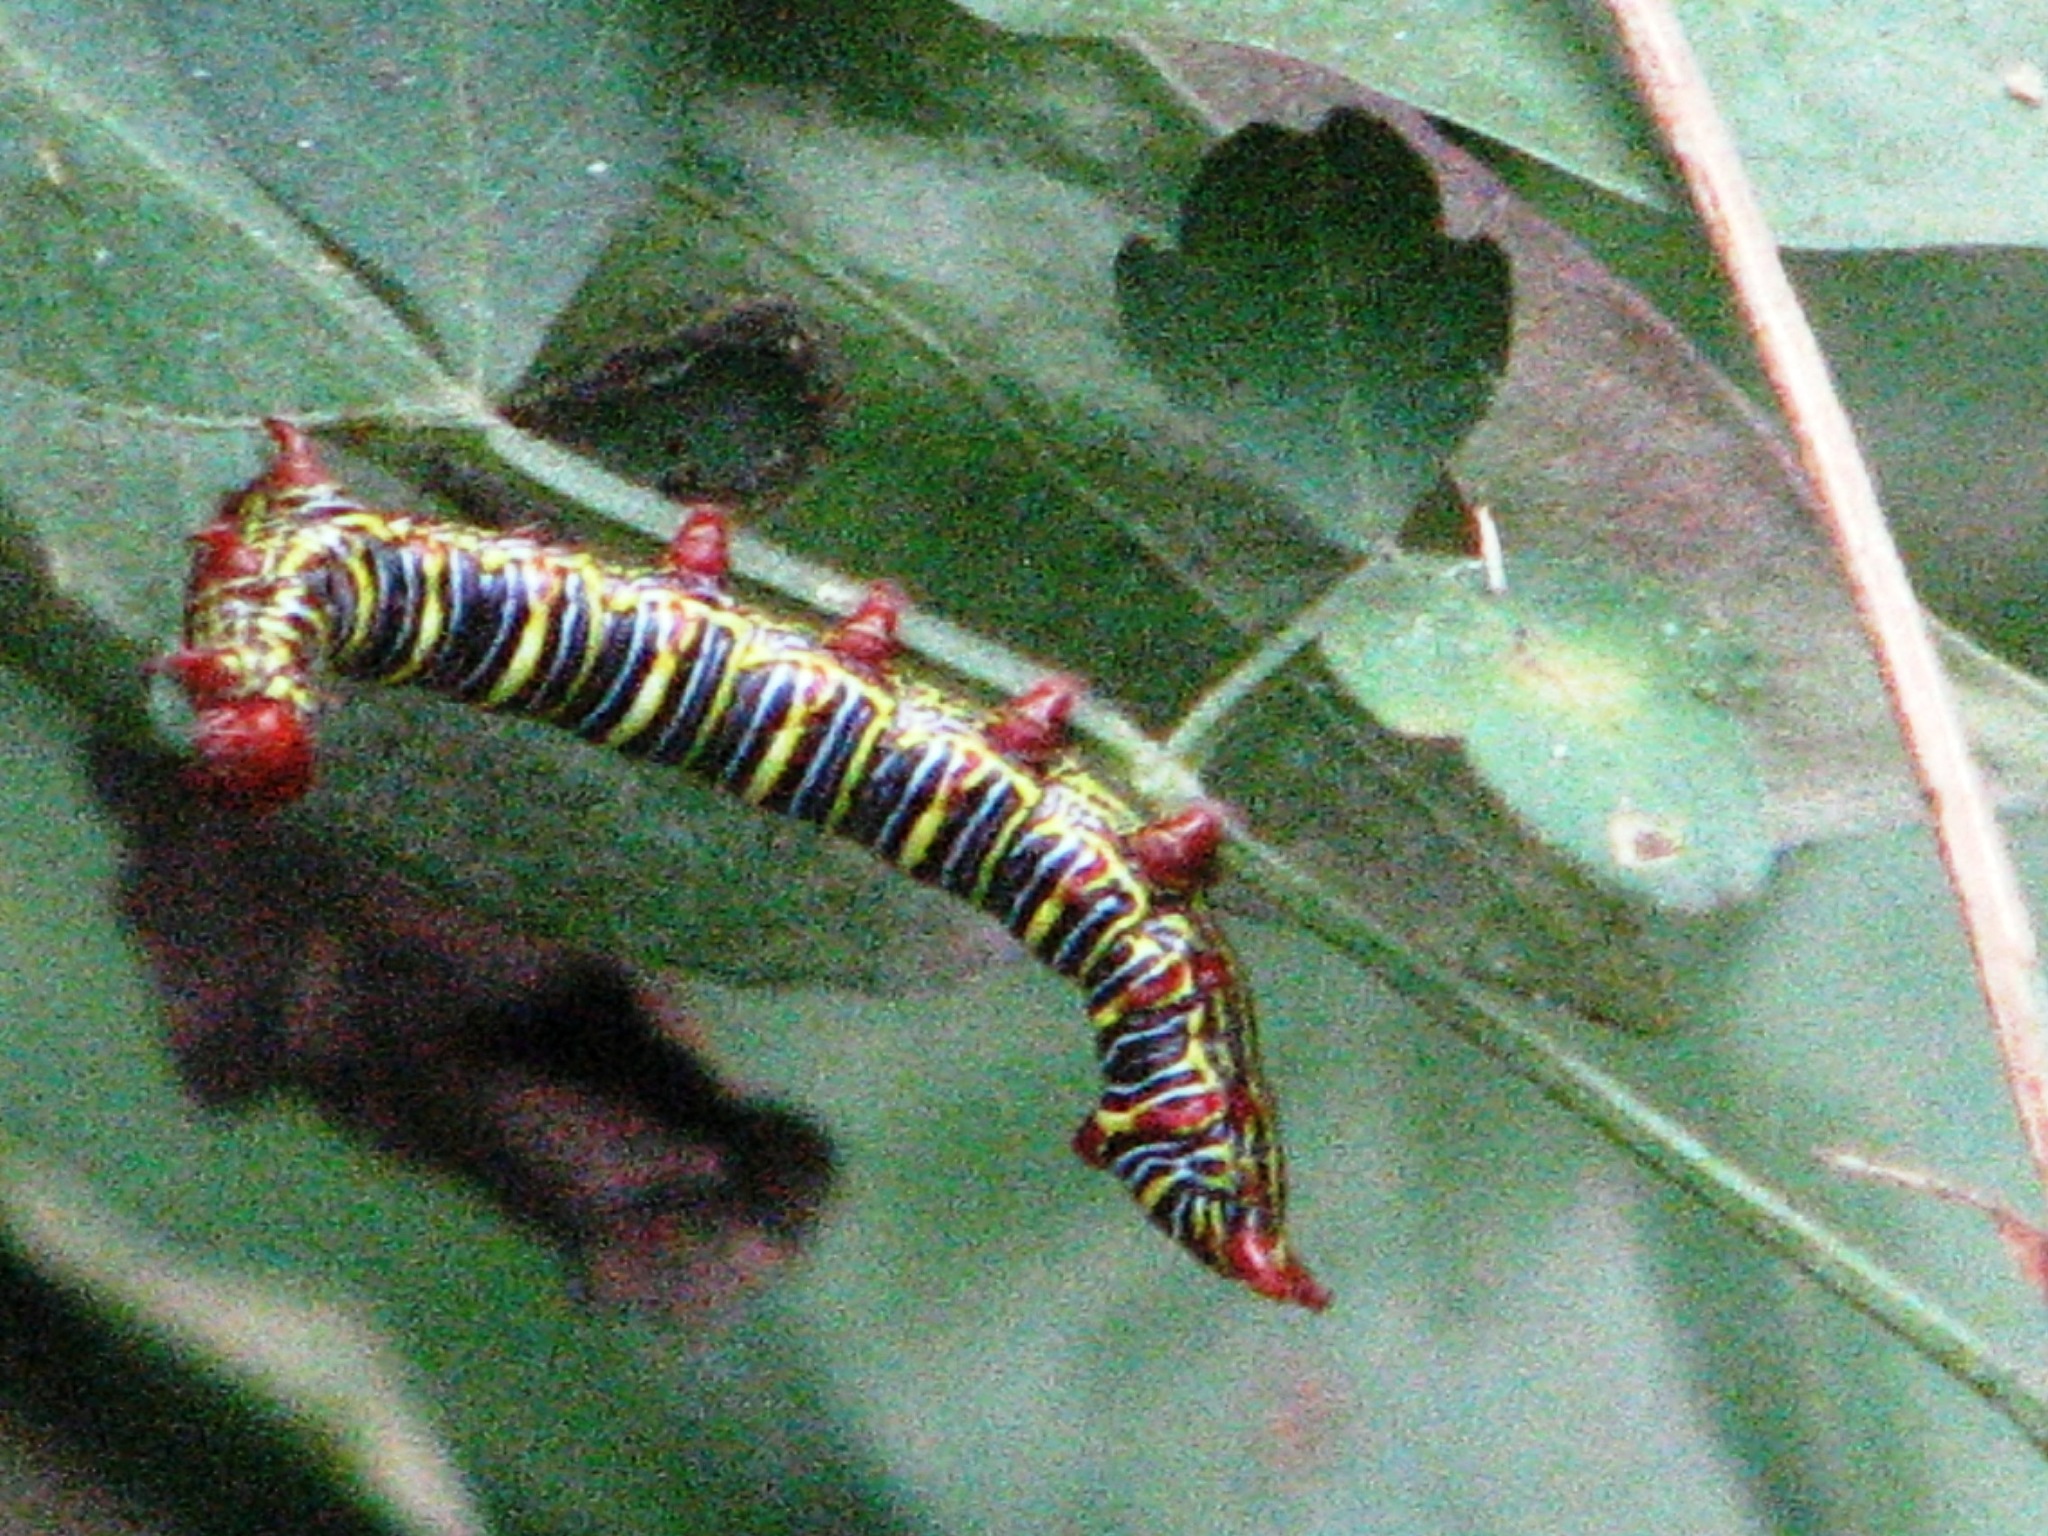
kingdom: Animalia
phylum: Arthropoda
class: Insecta
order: Lepidoptera
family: Notodontidae
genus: Didugua
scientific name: Didugua argentilinea
